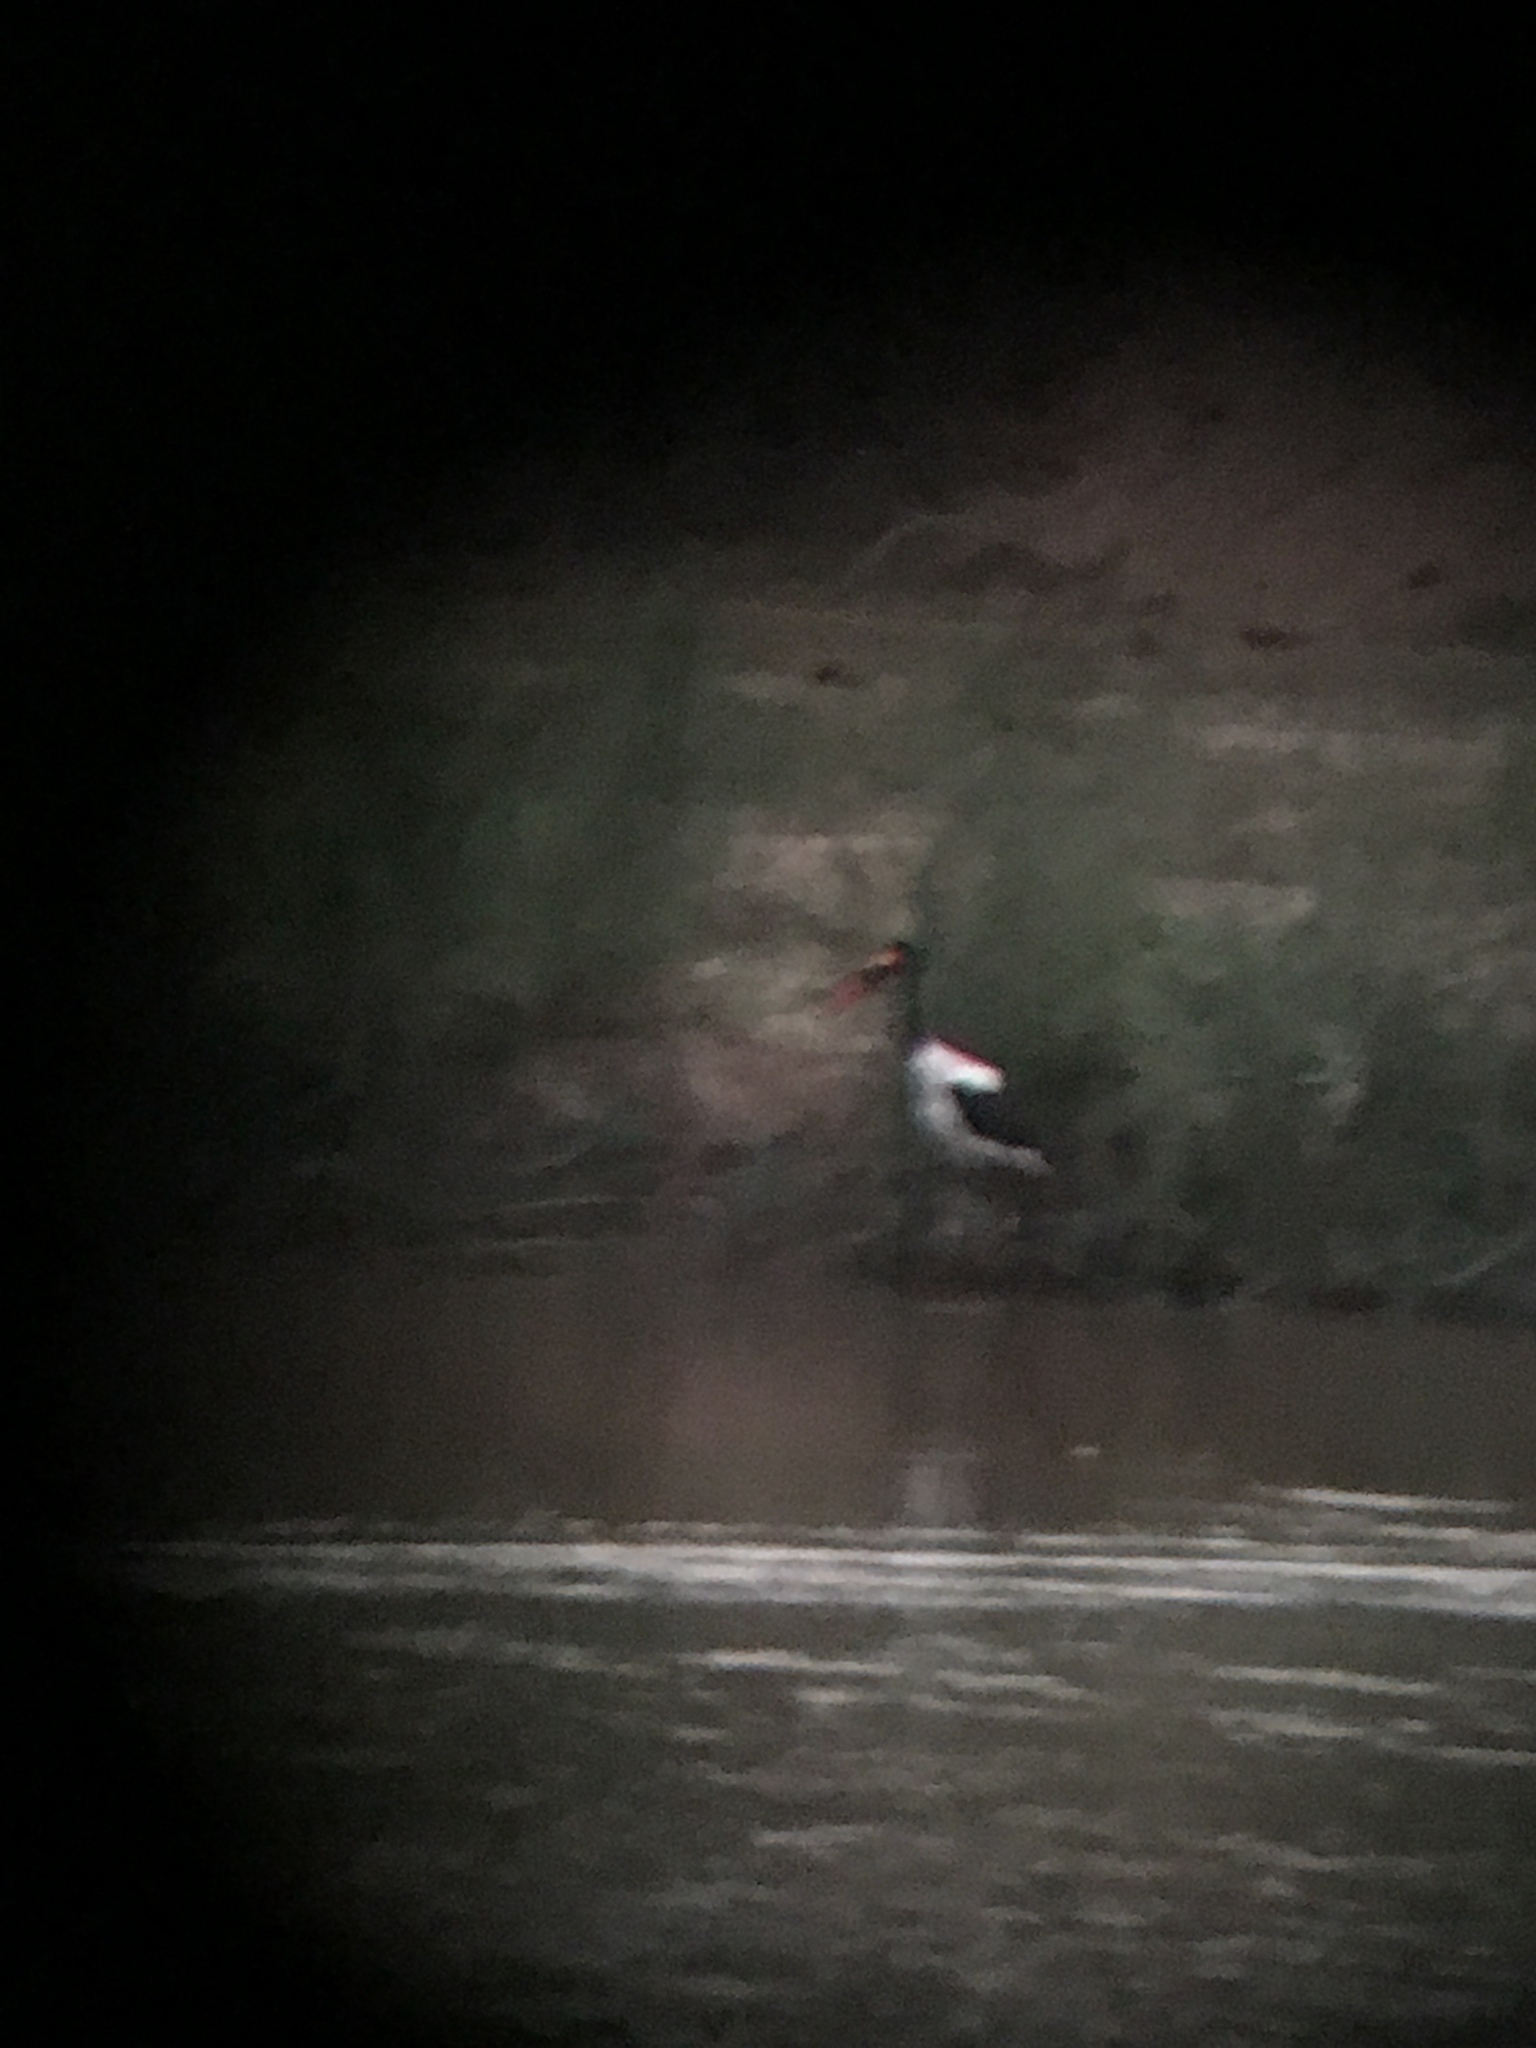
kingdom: Animalia
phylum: Chordata
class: Aves
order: Ciconiiformes
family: Ciconiidae
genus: Ephippiorhynchus
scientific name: Ephippiorhynchus senegalensis
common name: Saddle-billed stork
